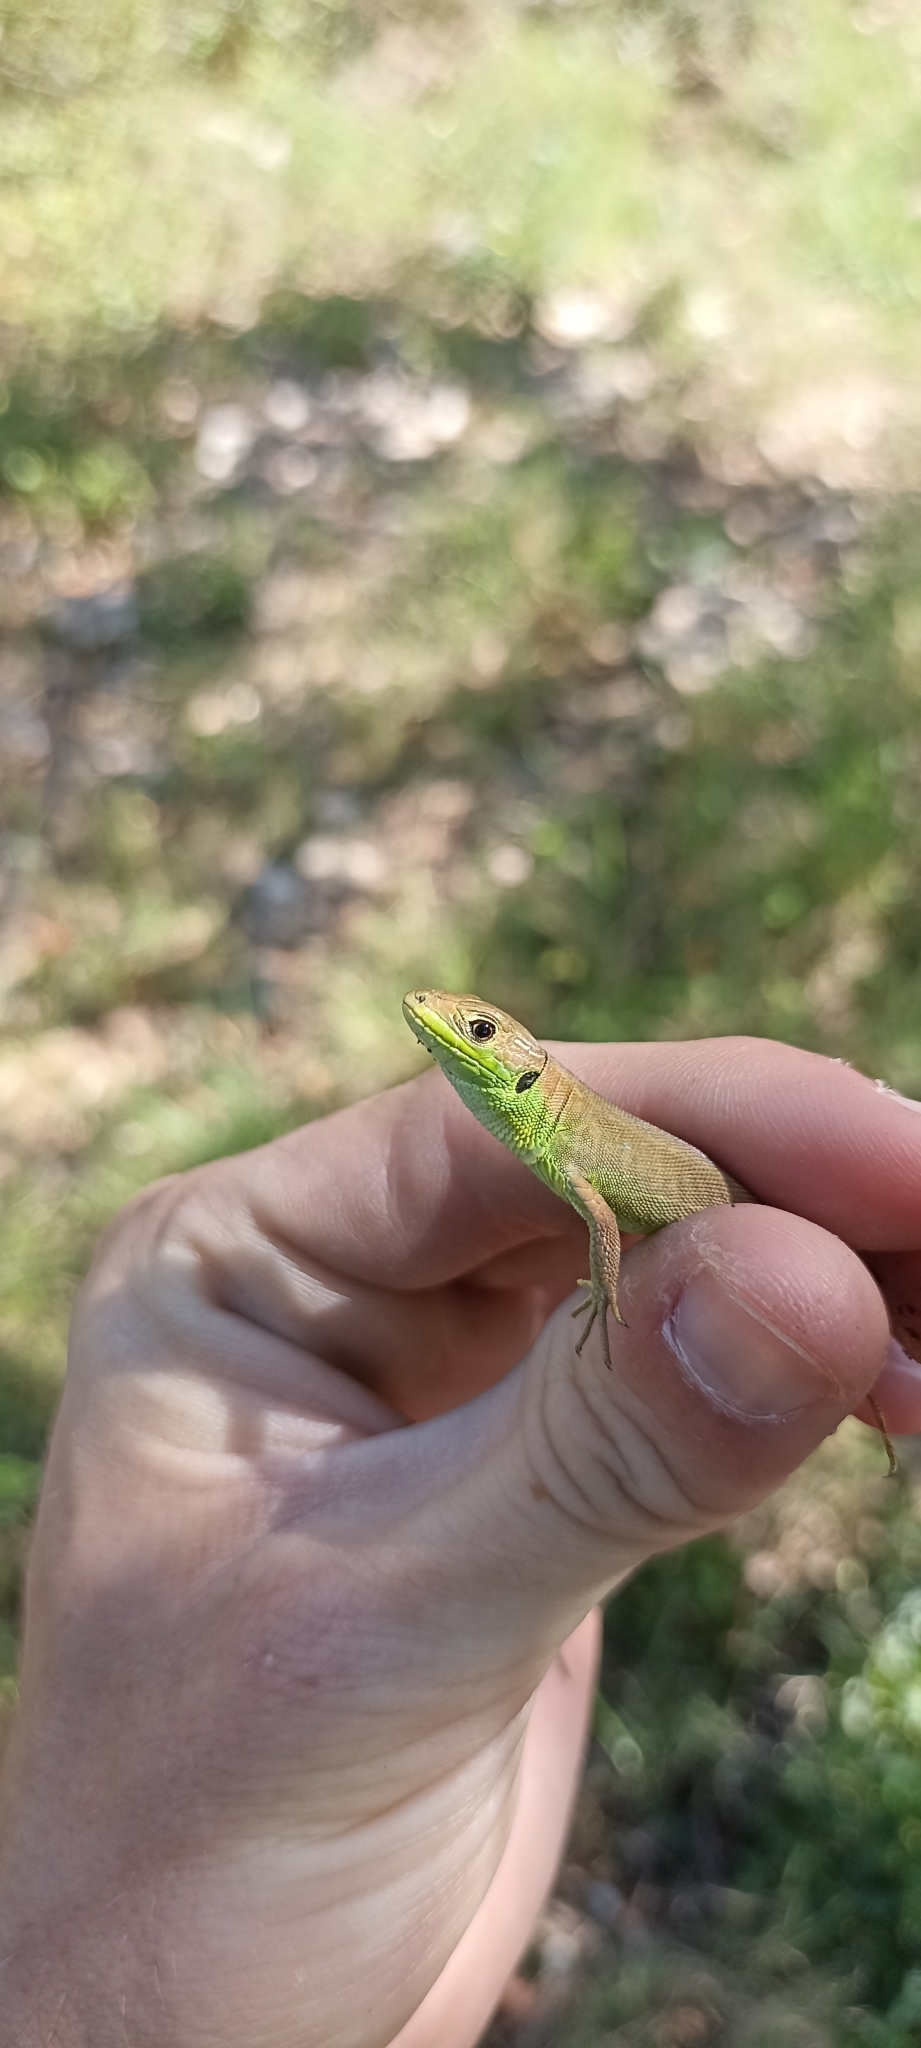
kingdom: Animalia
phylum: Chordata
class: Squamata
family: Lacertidae
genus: Lacerta
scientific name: Lacerta bilineata
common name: Western green lizard
